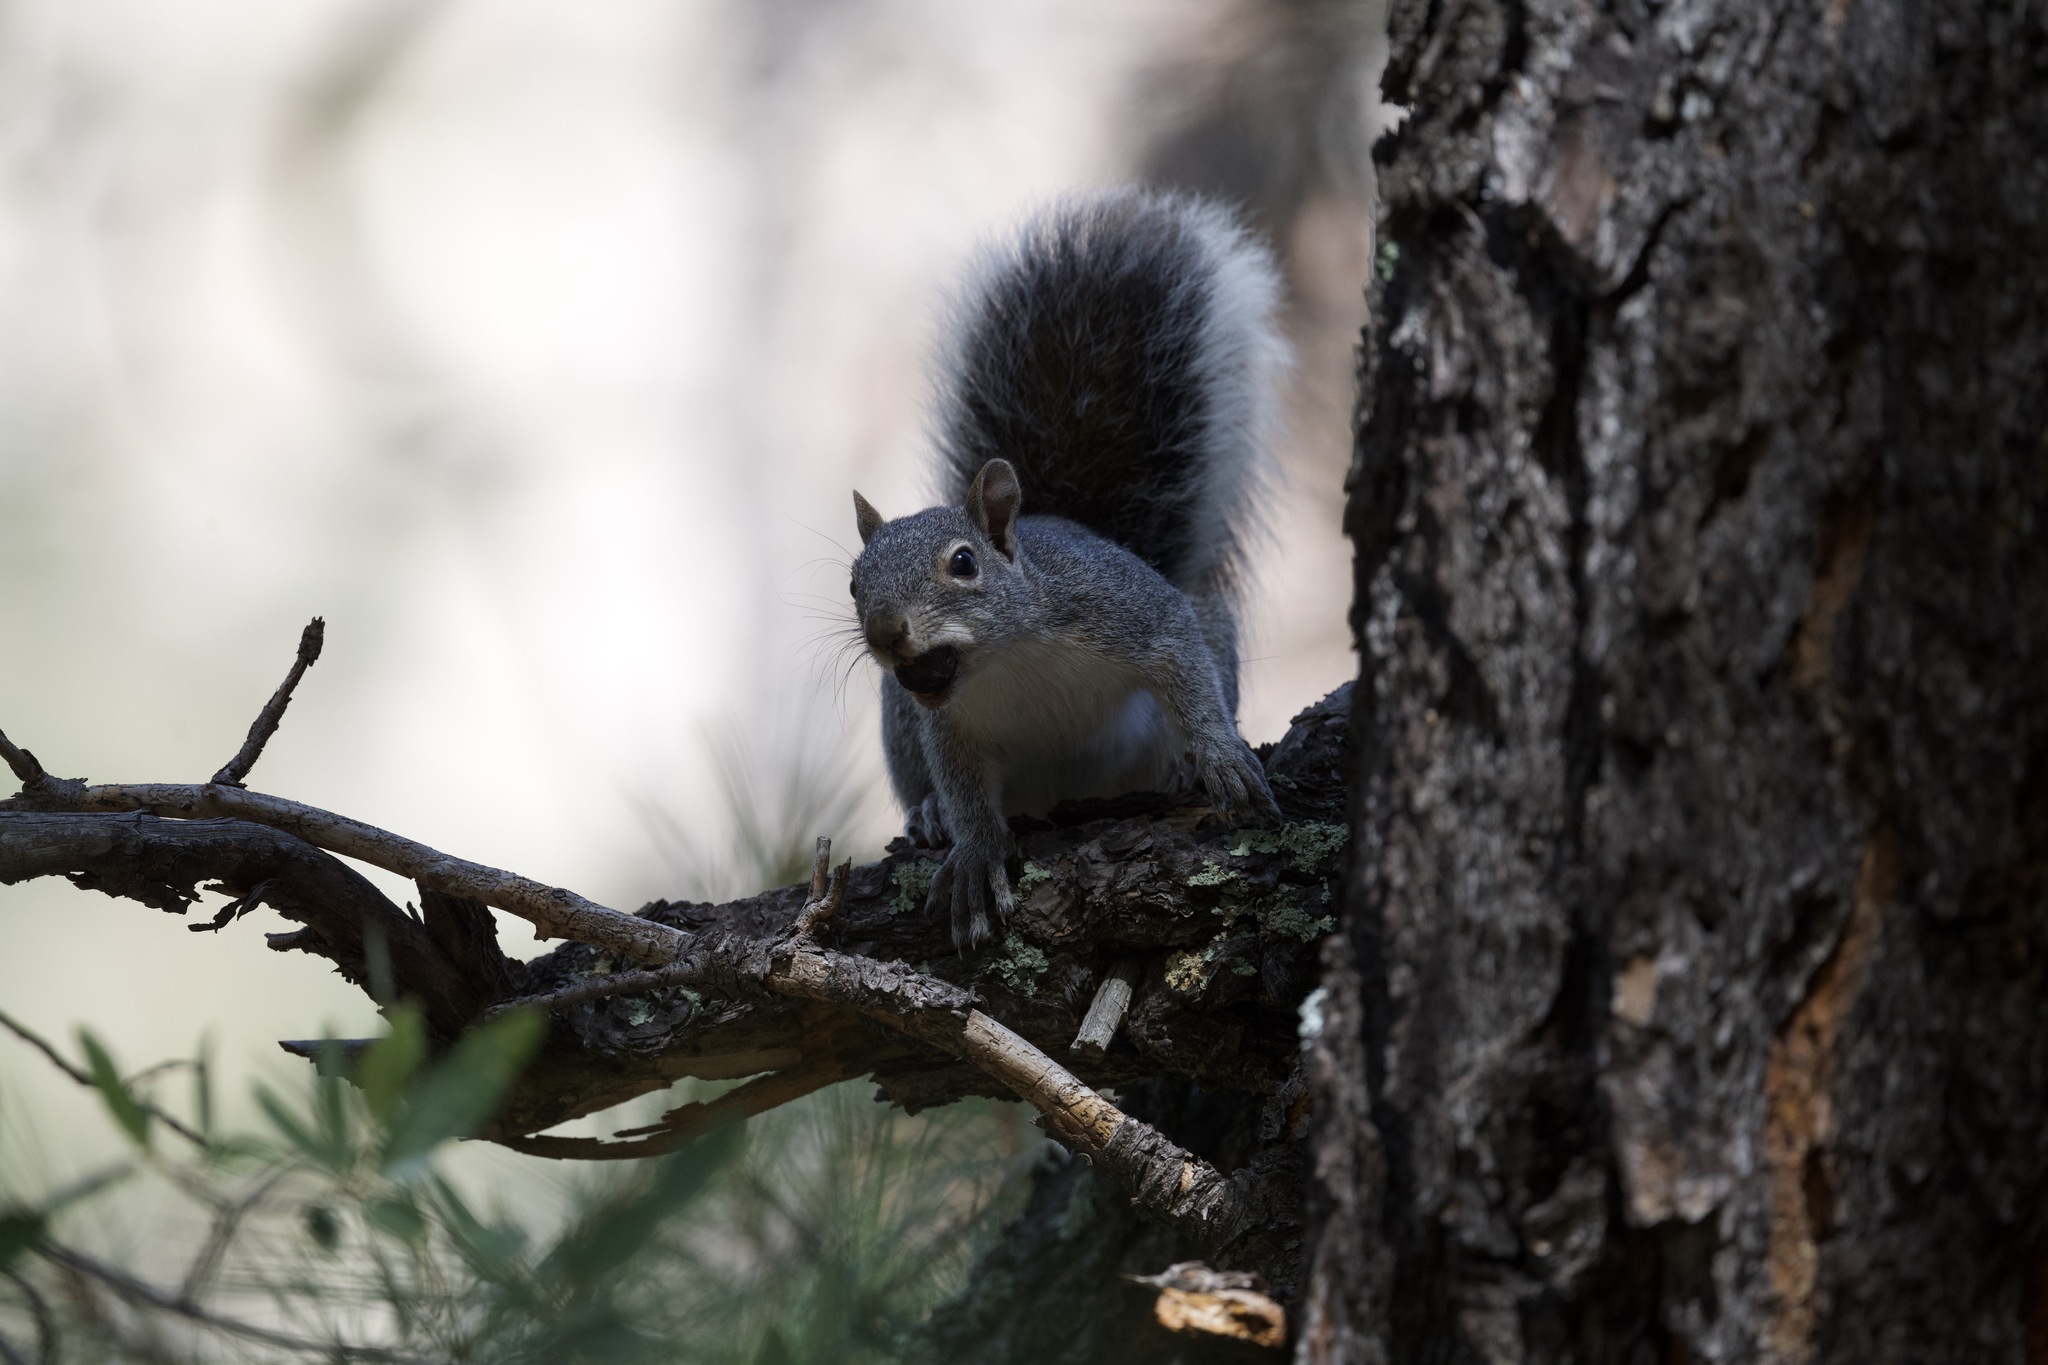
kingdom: Animalia
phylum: Chordata
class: Mammalia
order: Rodentia
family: Sciuridae
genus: Sciurus
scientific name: Sciurus aberti
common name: Abert's squirrel
